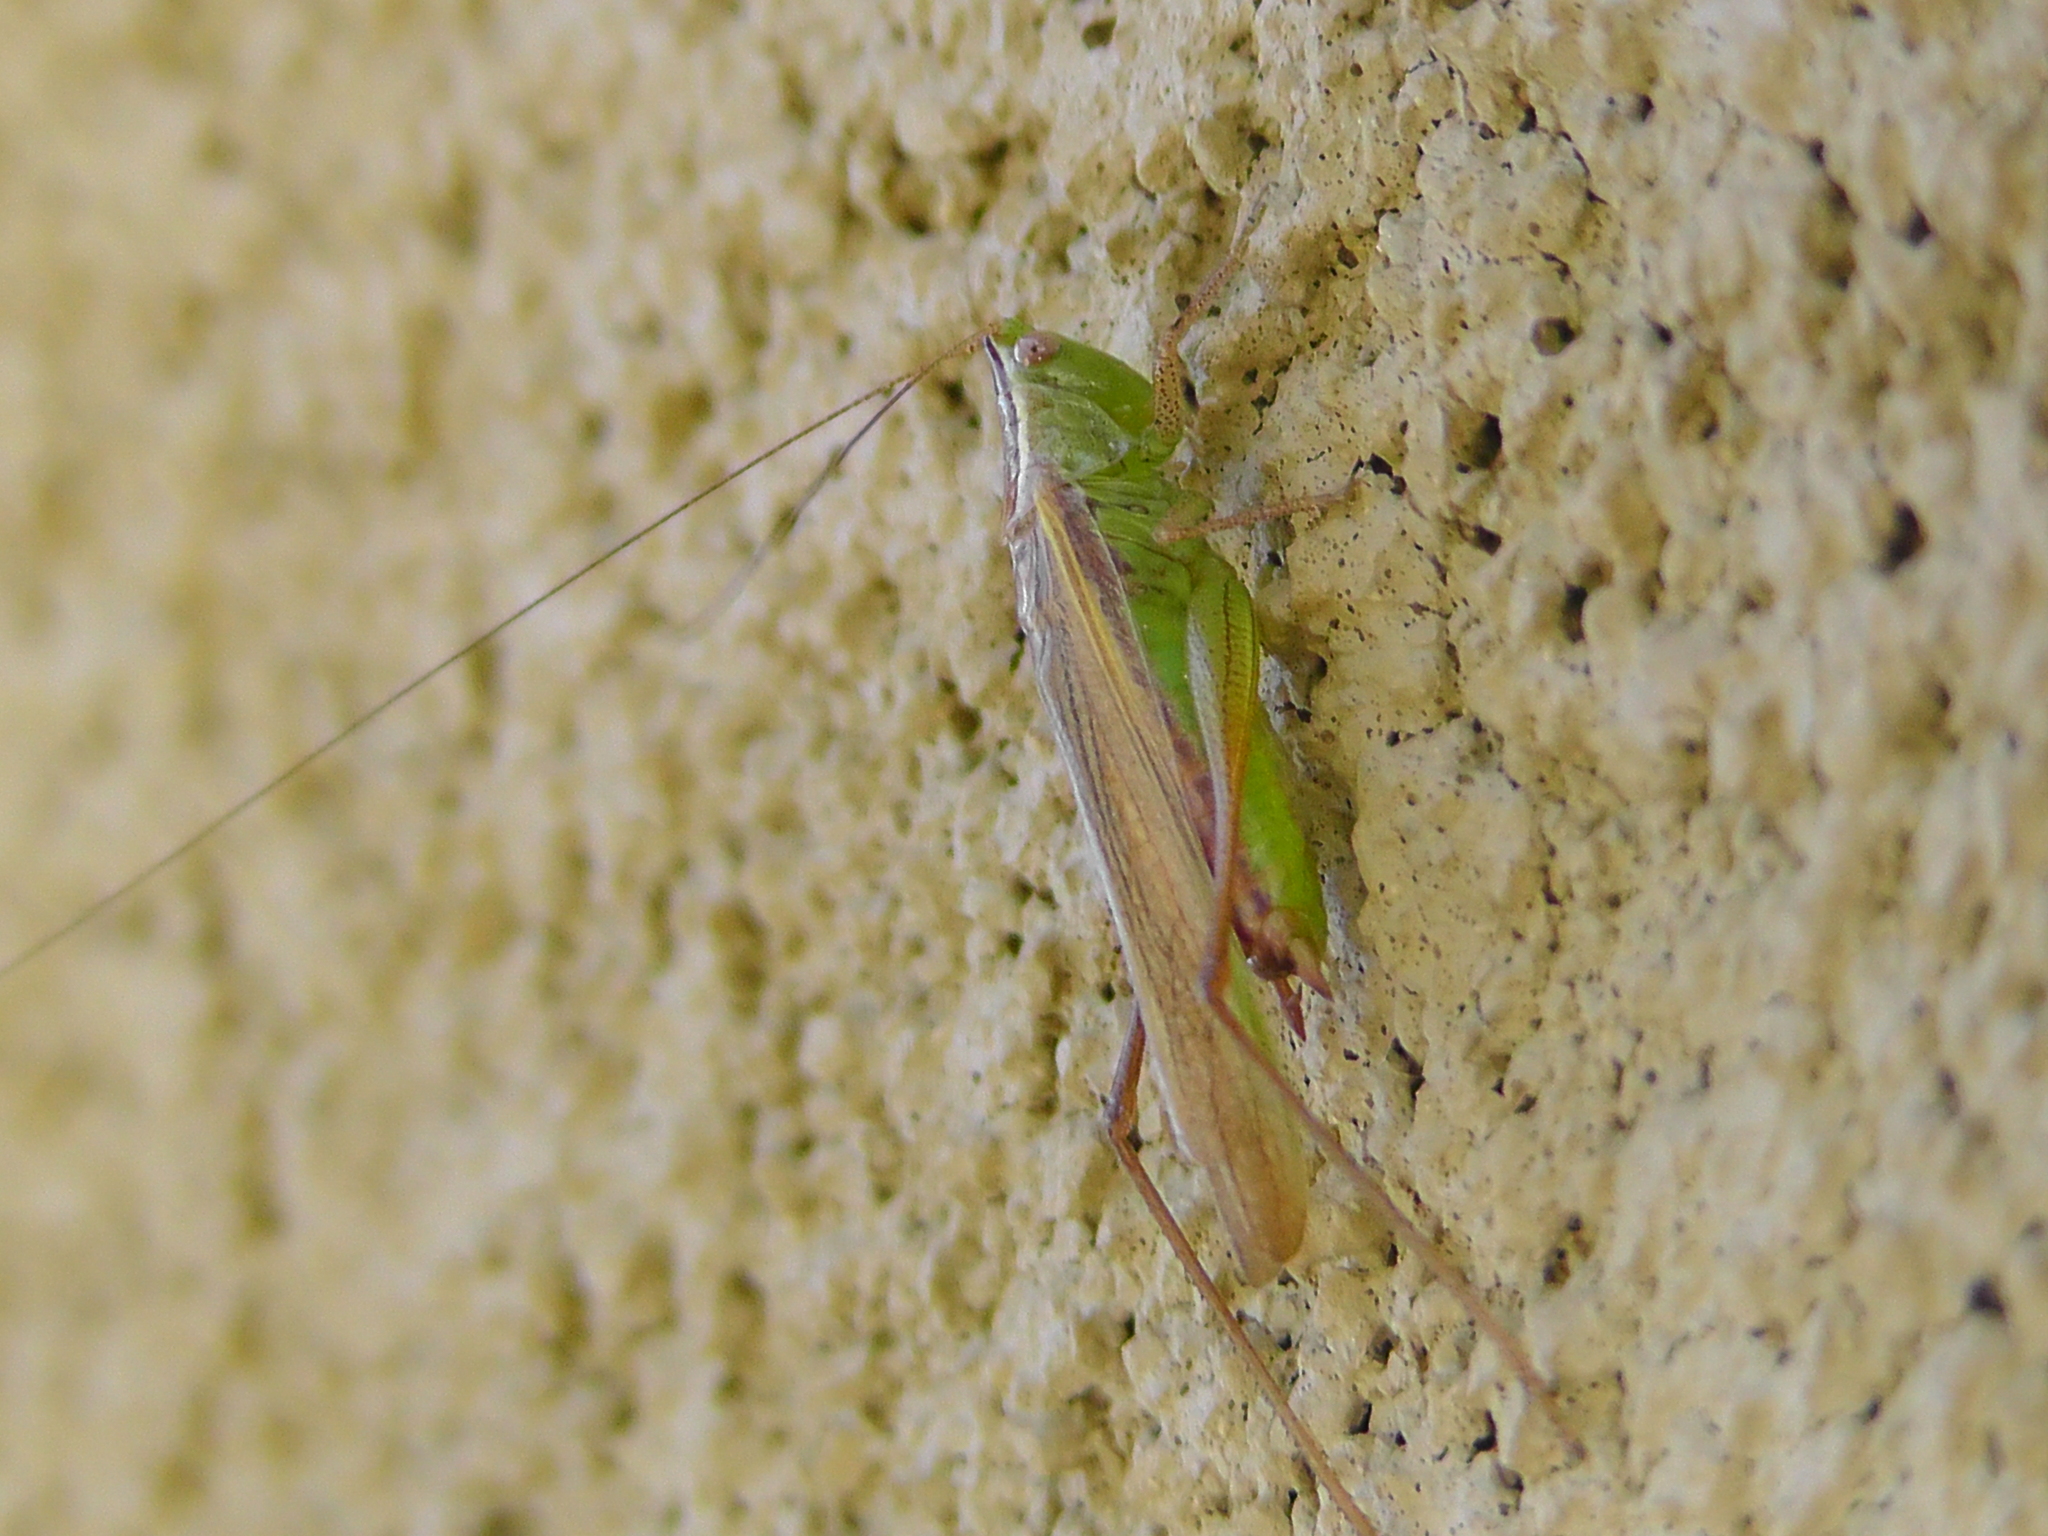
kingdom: Animalia
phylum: Arthropoda
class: Insecta
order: Orthoptera
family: Tettigoniidae
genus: Conocephalus
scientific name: Conocephalus saltans
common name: Prairie meadow katydid
